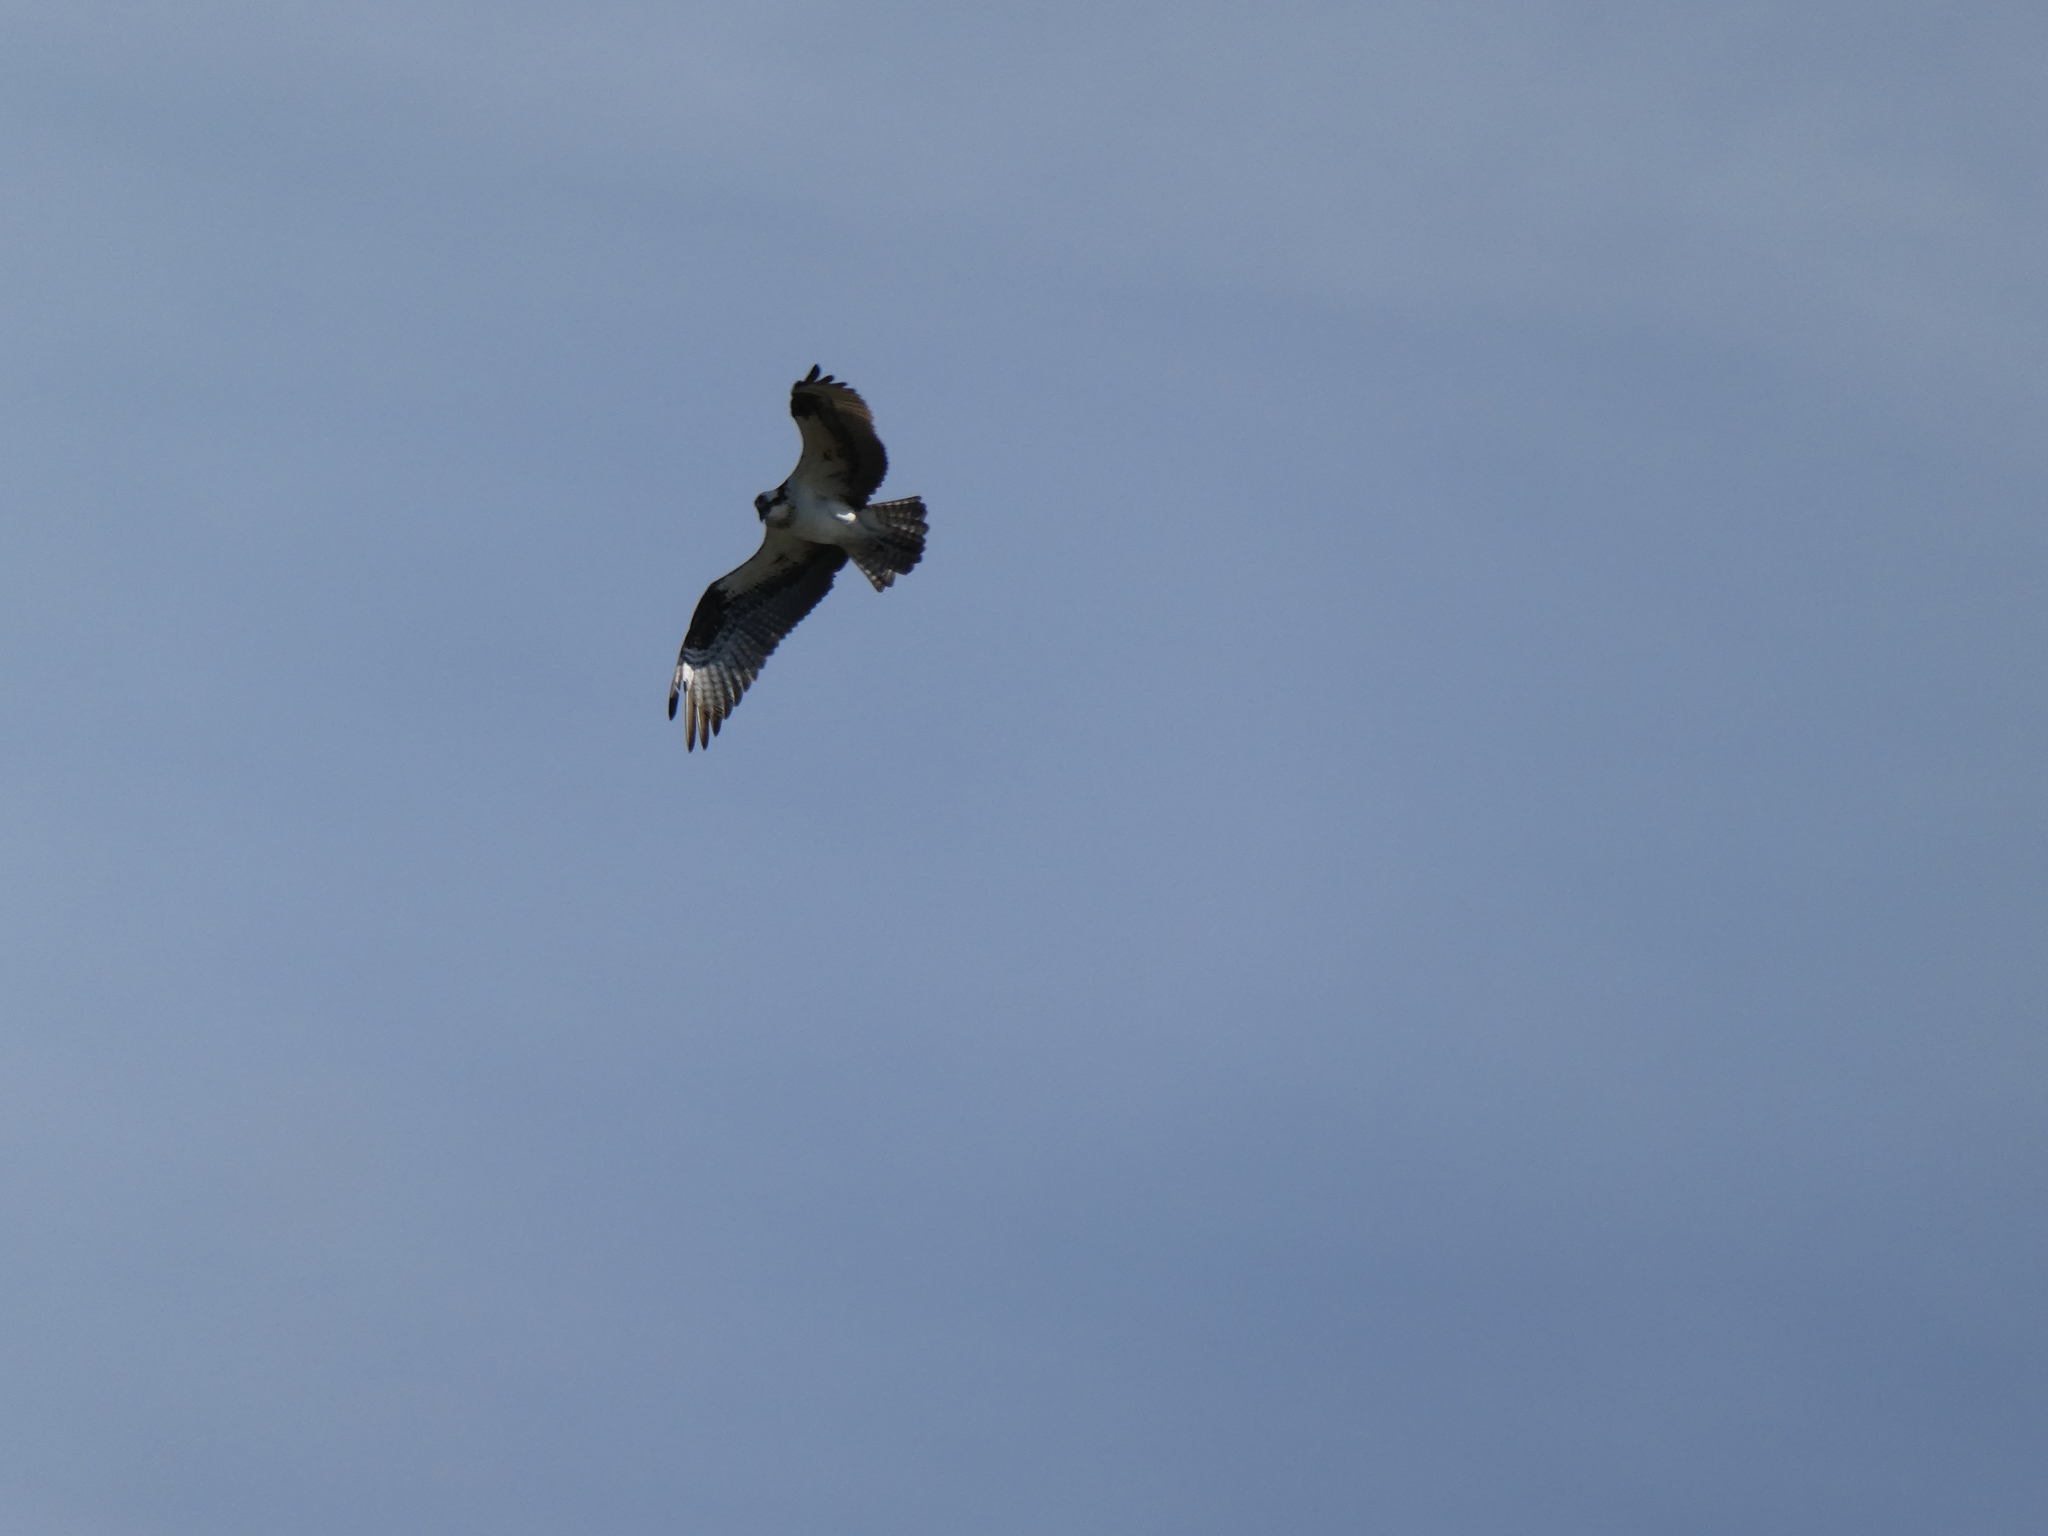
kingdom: Animalia
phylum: Chordata
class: Aves
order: Accipitriformes
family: Pandionidae
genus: Pandion
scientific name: Pandion haliaetus
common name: Osprey
